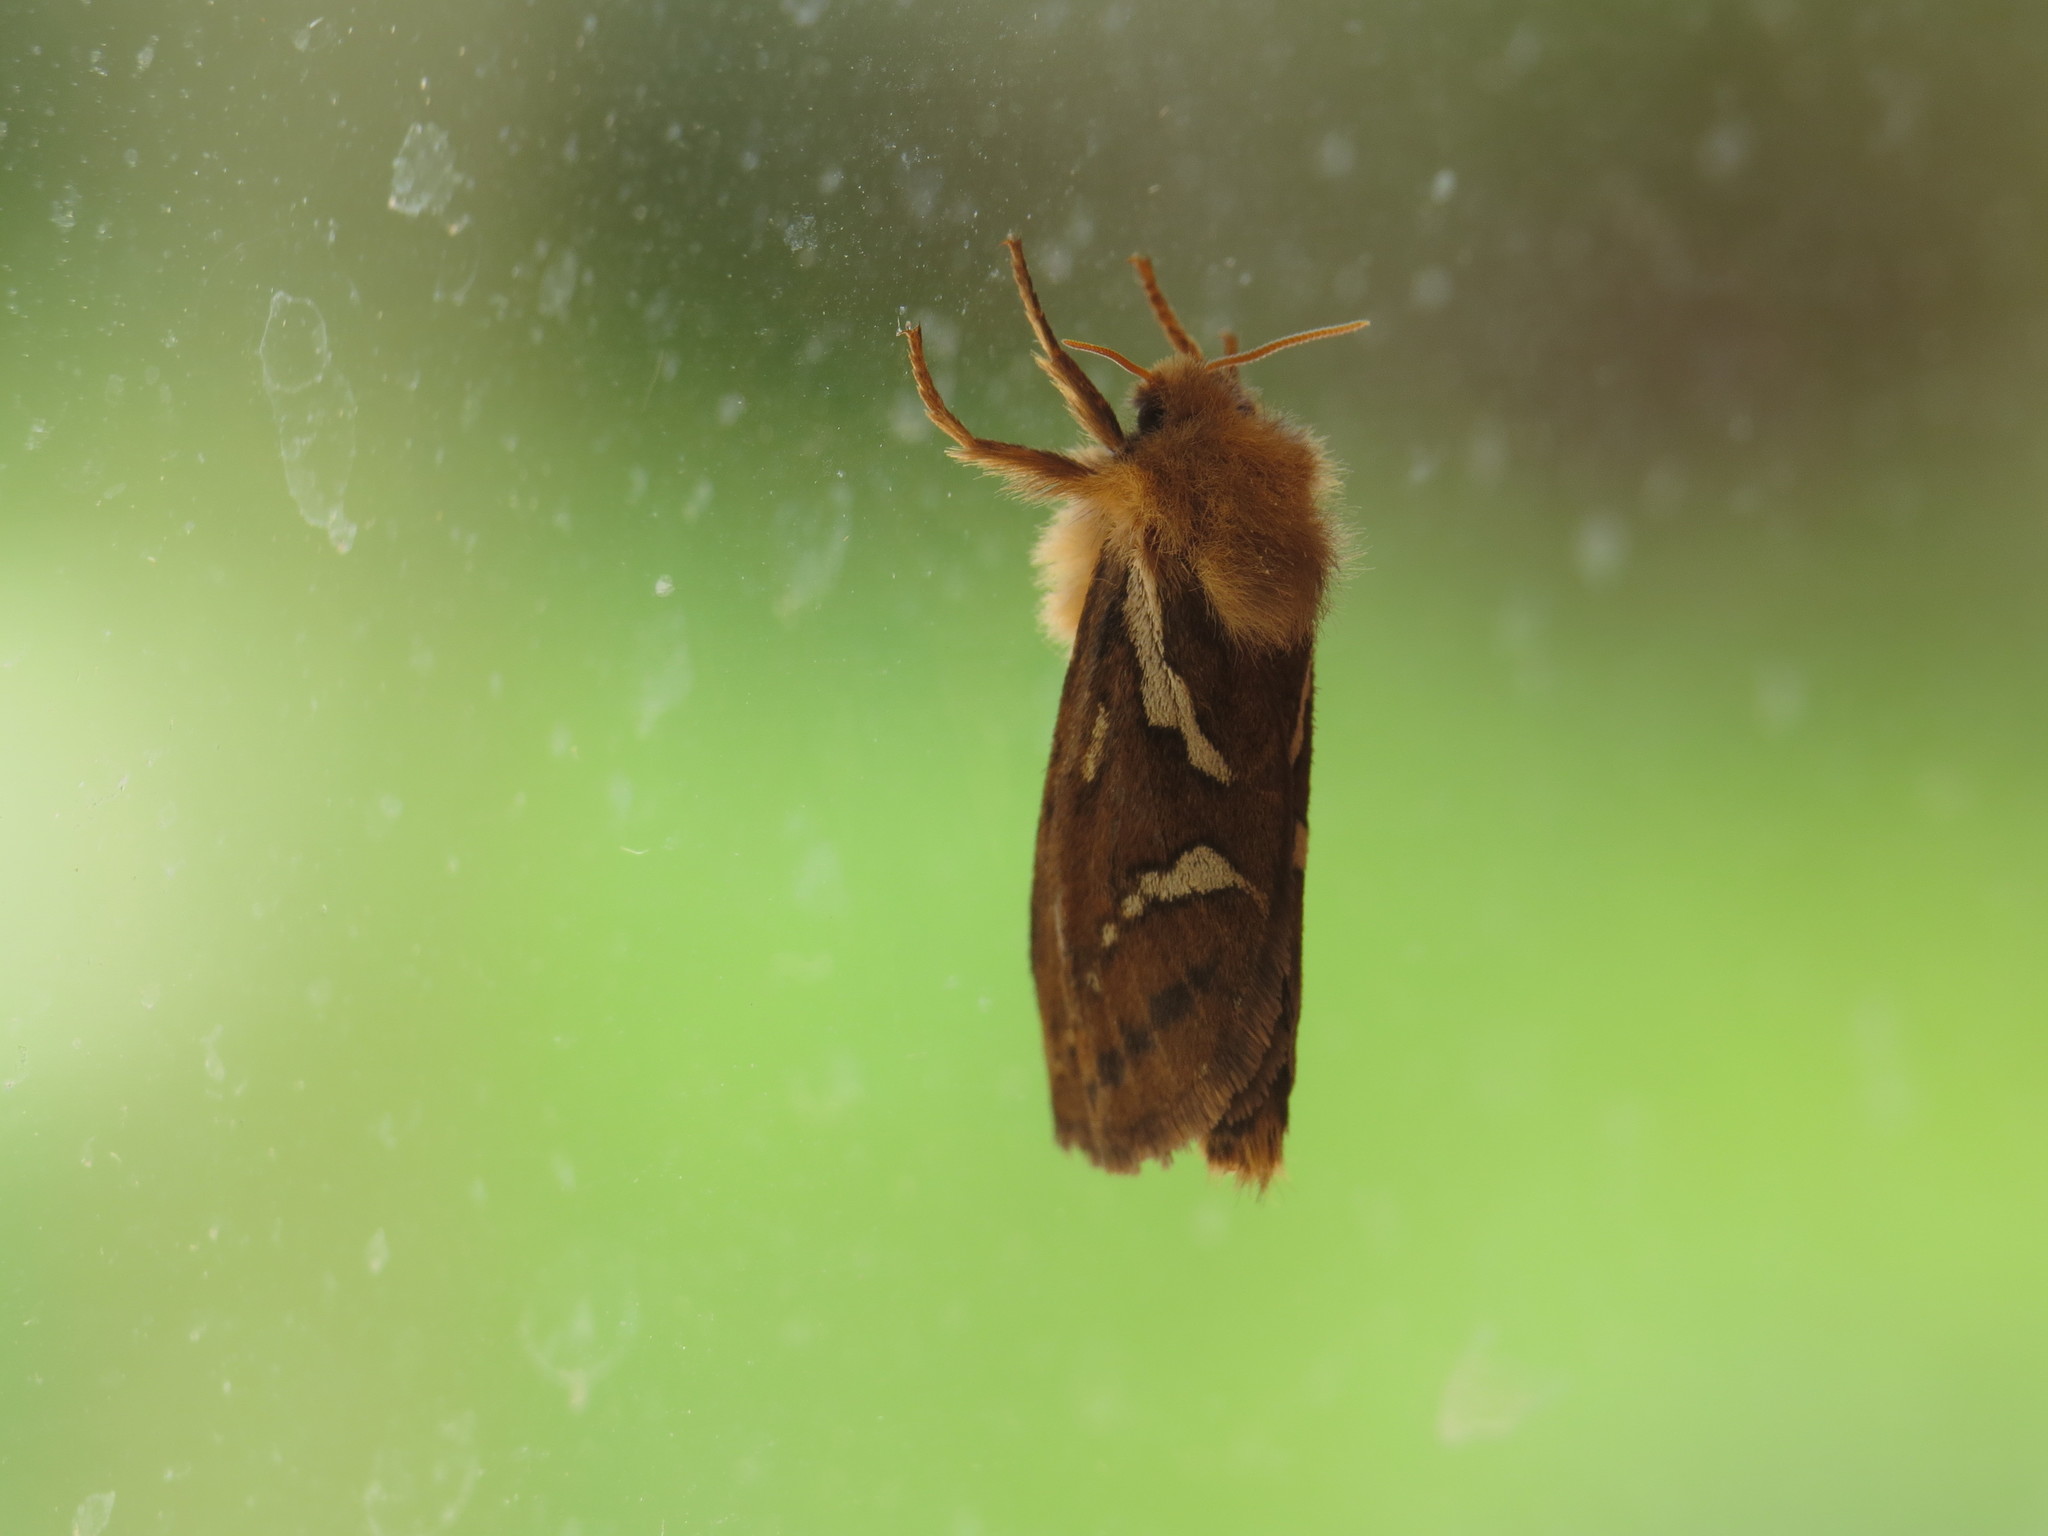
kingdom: Animalia
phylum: Arthropoda
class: Insecta
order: Lepidoptera
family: Hepialidae
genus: Korscheltellus
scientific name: Korscheltellus lupulina
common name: Common swift
